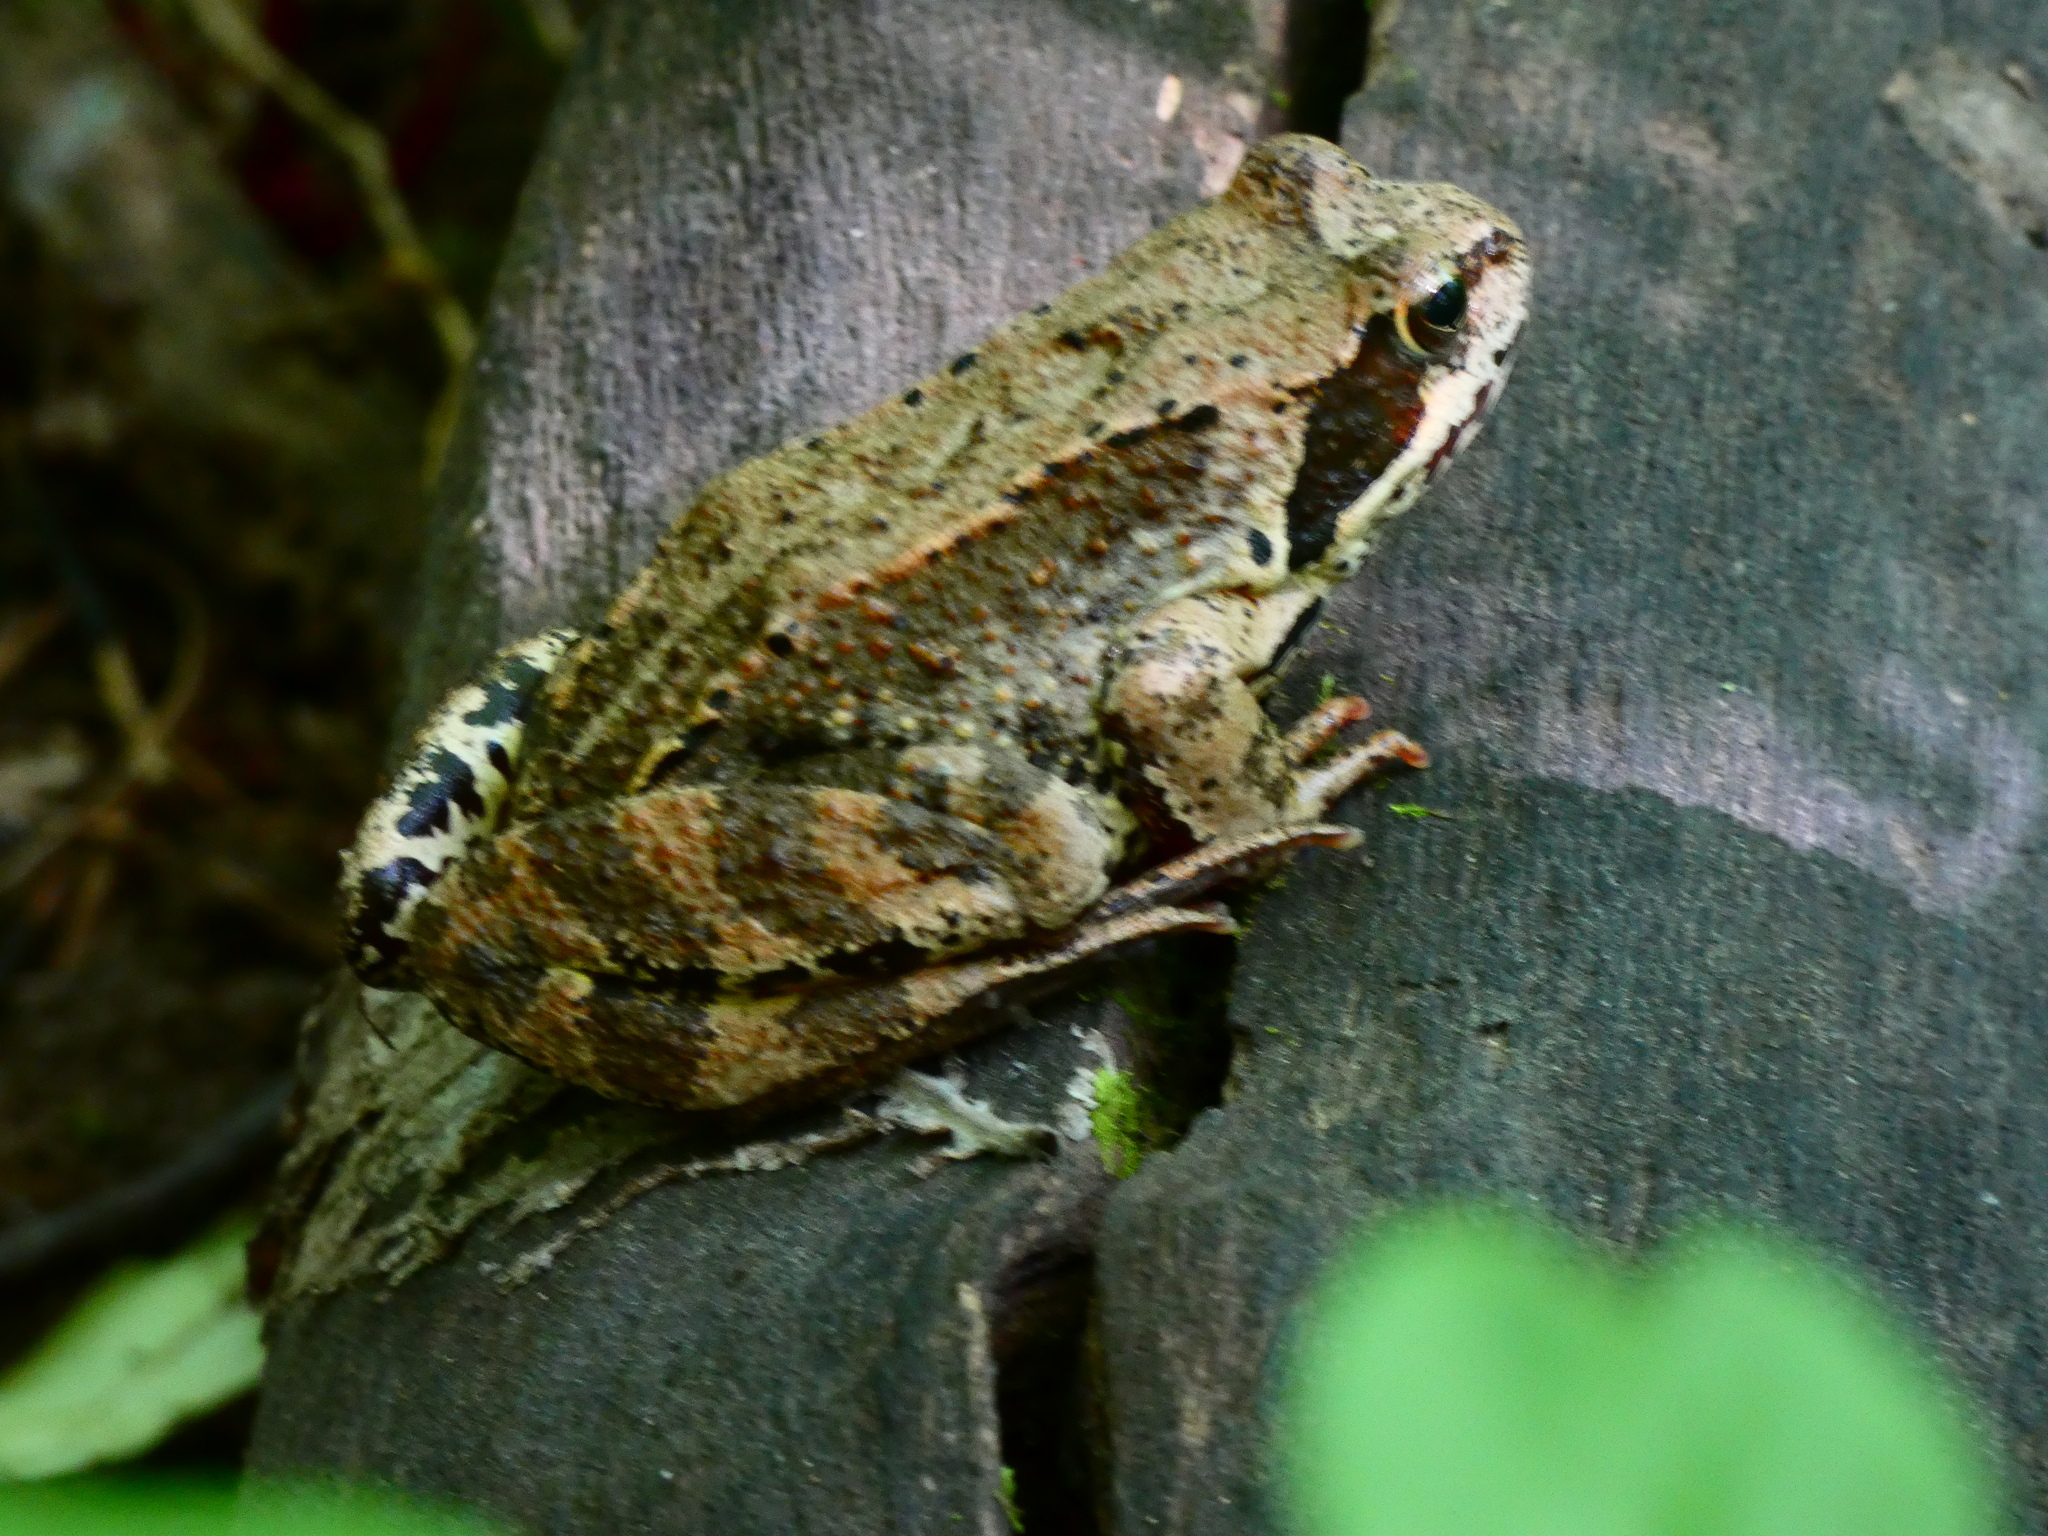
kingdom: Animalia
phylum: Chordata
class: Amphibia
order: Anura
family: Ranidae
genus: Rana
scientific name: Rana temporaria
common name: Common frog
